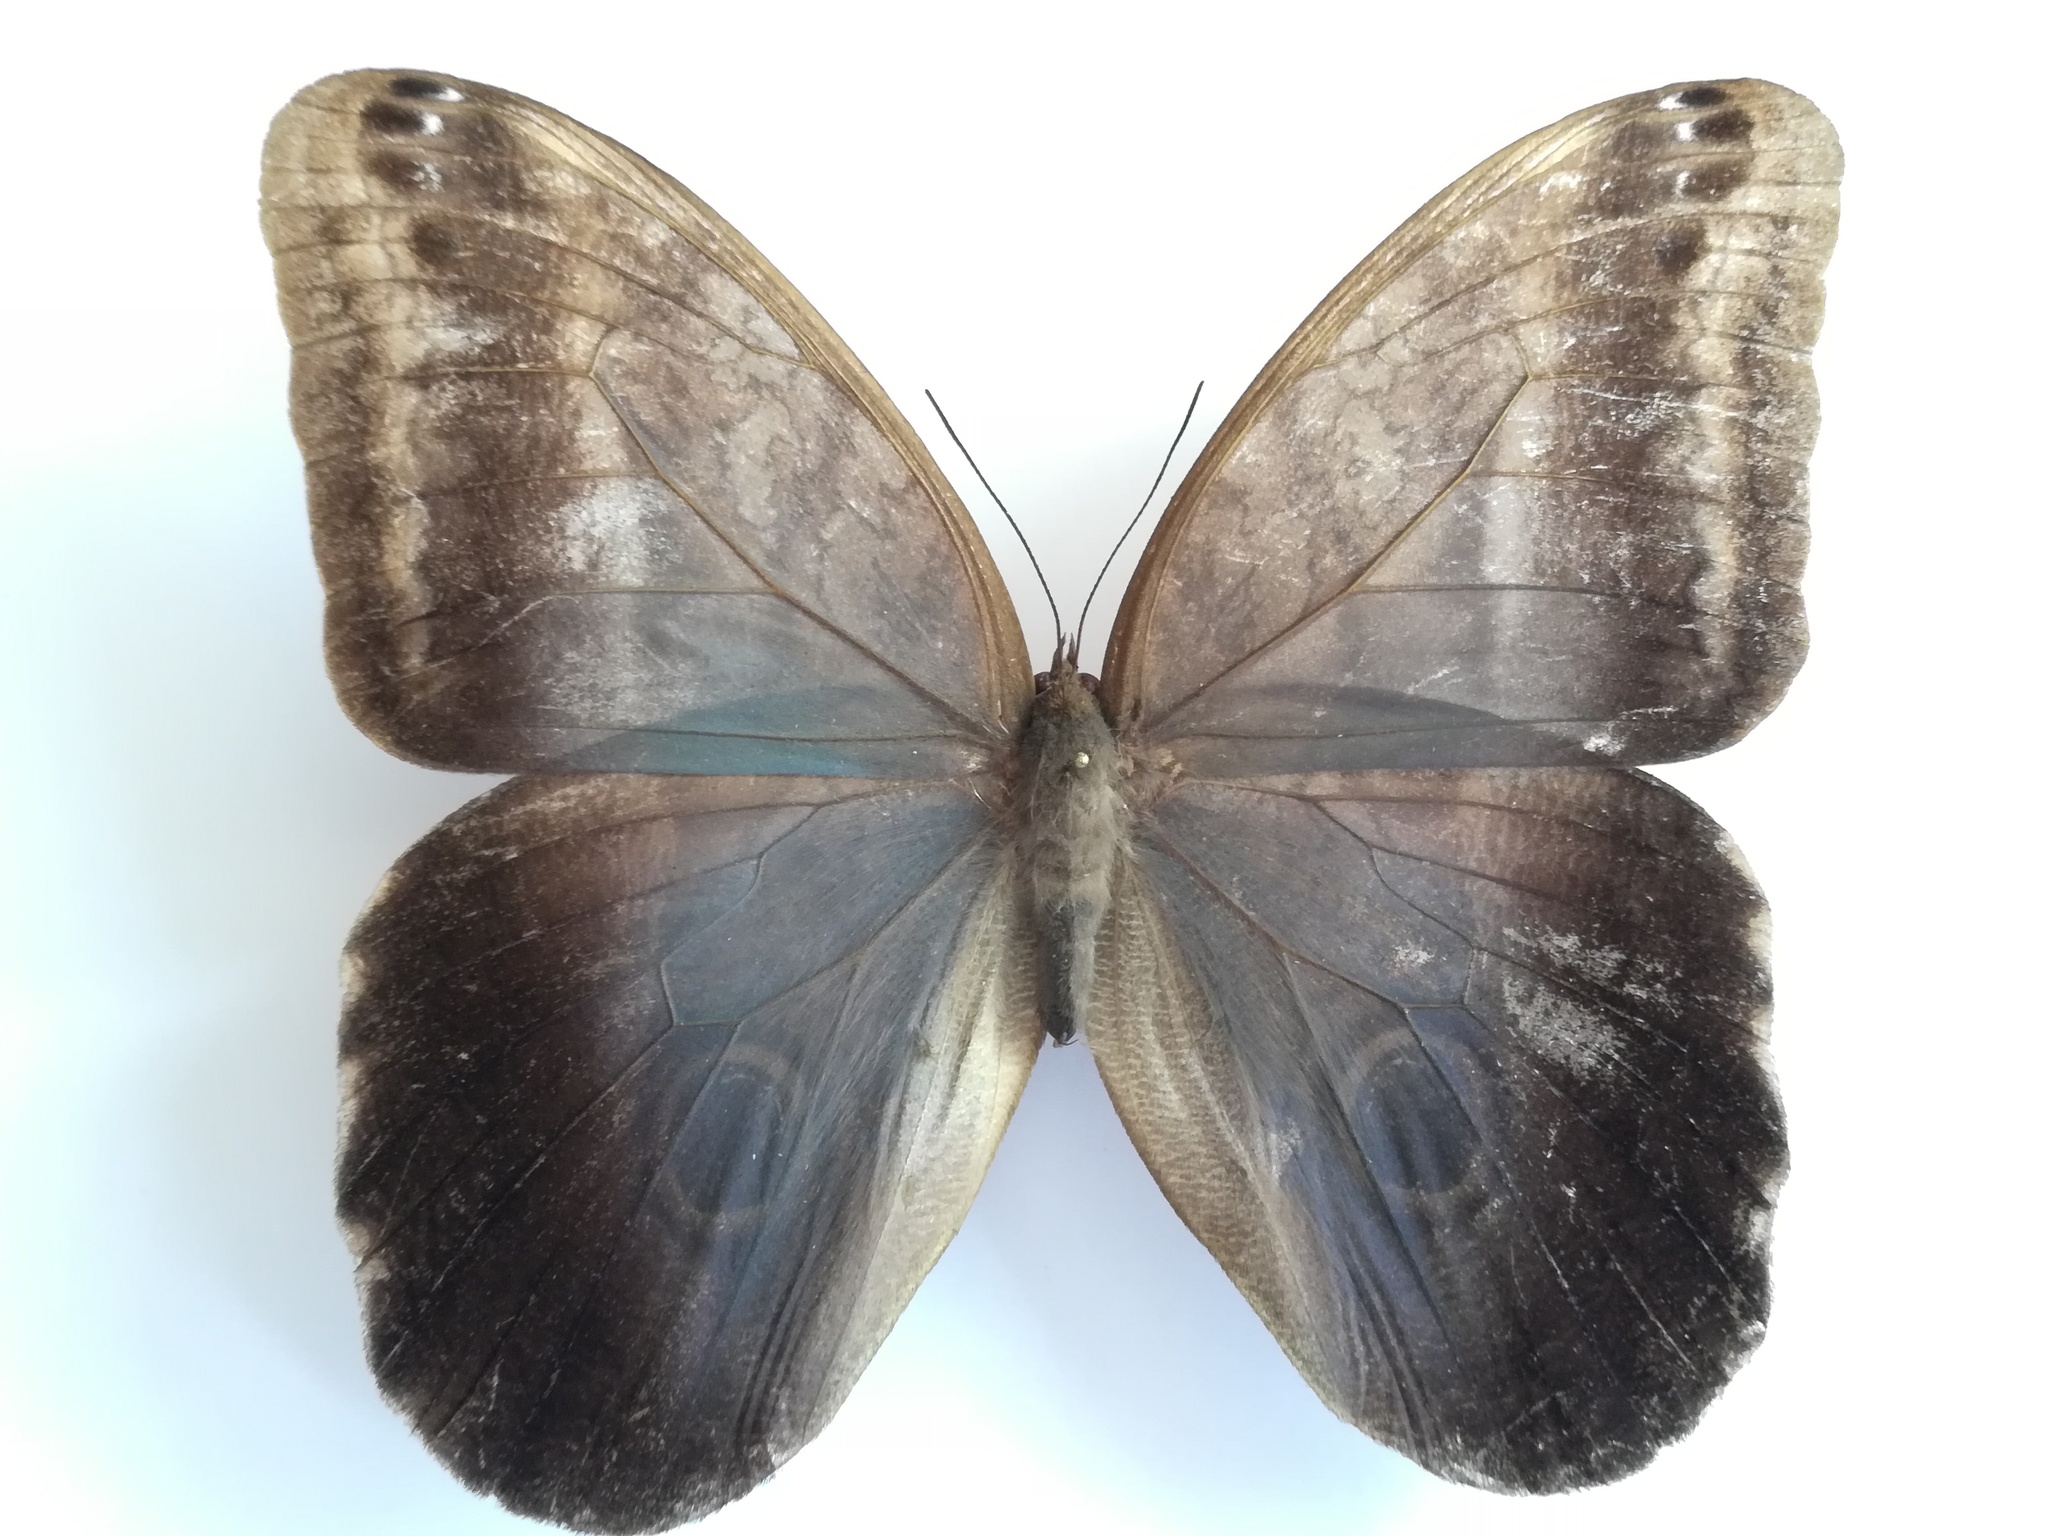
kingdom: Animalia
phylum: Arthropoda
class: Insecta
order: Lepidoptera
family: Nymphalidae
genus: Caligo
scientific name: Caligo illioneus
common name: Dusky owl-butterfly
